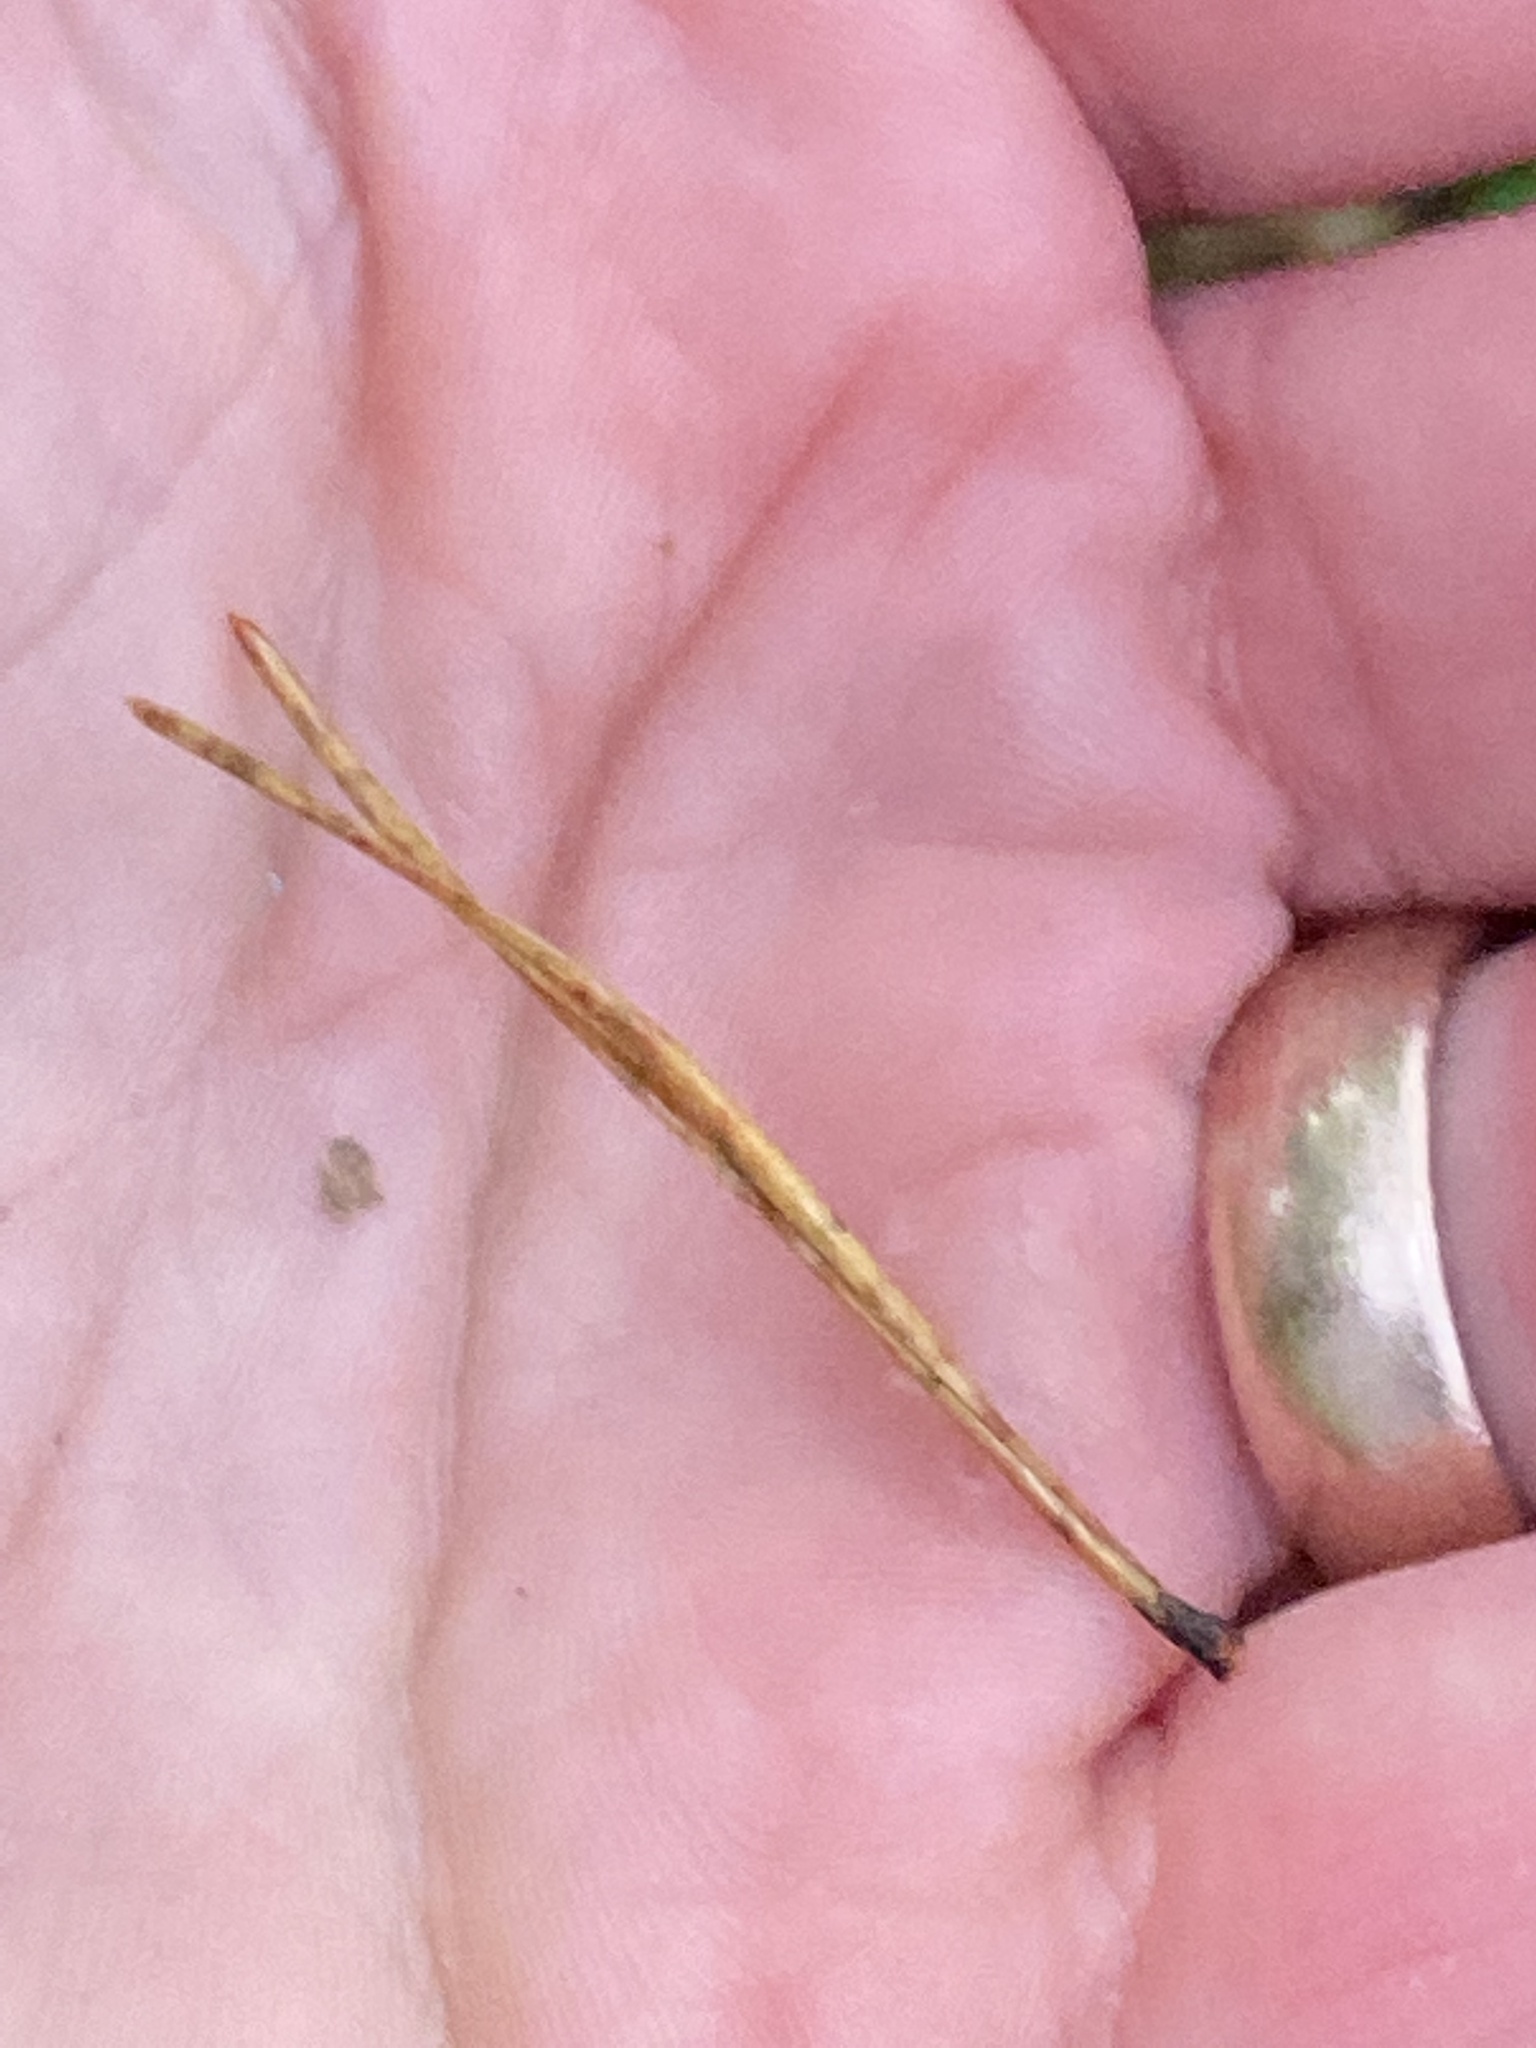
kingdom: Plantae
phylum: Tracheophyta
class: Pinopsida
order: Pinales
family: Pinaceae
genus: Pinus
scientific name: Pinus virginiana
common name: Scrub pine
